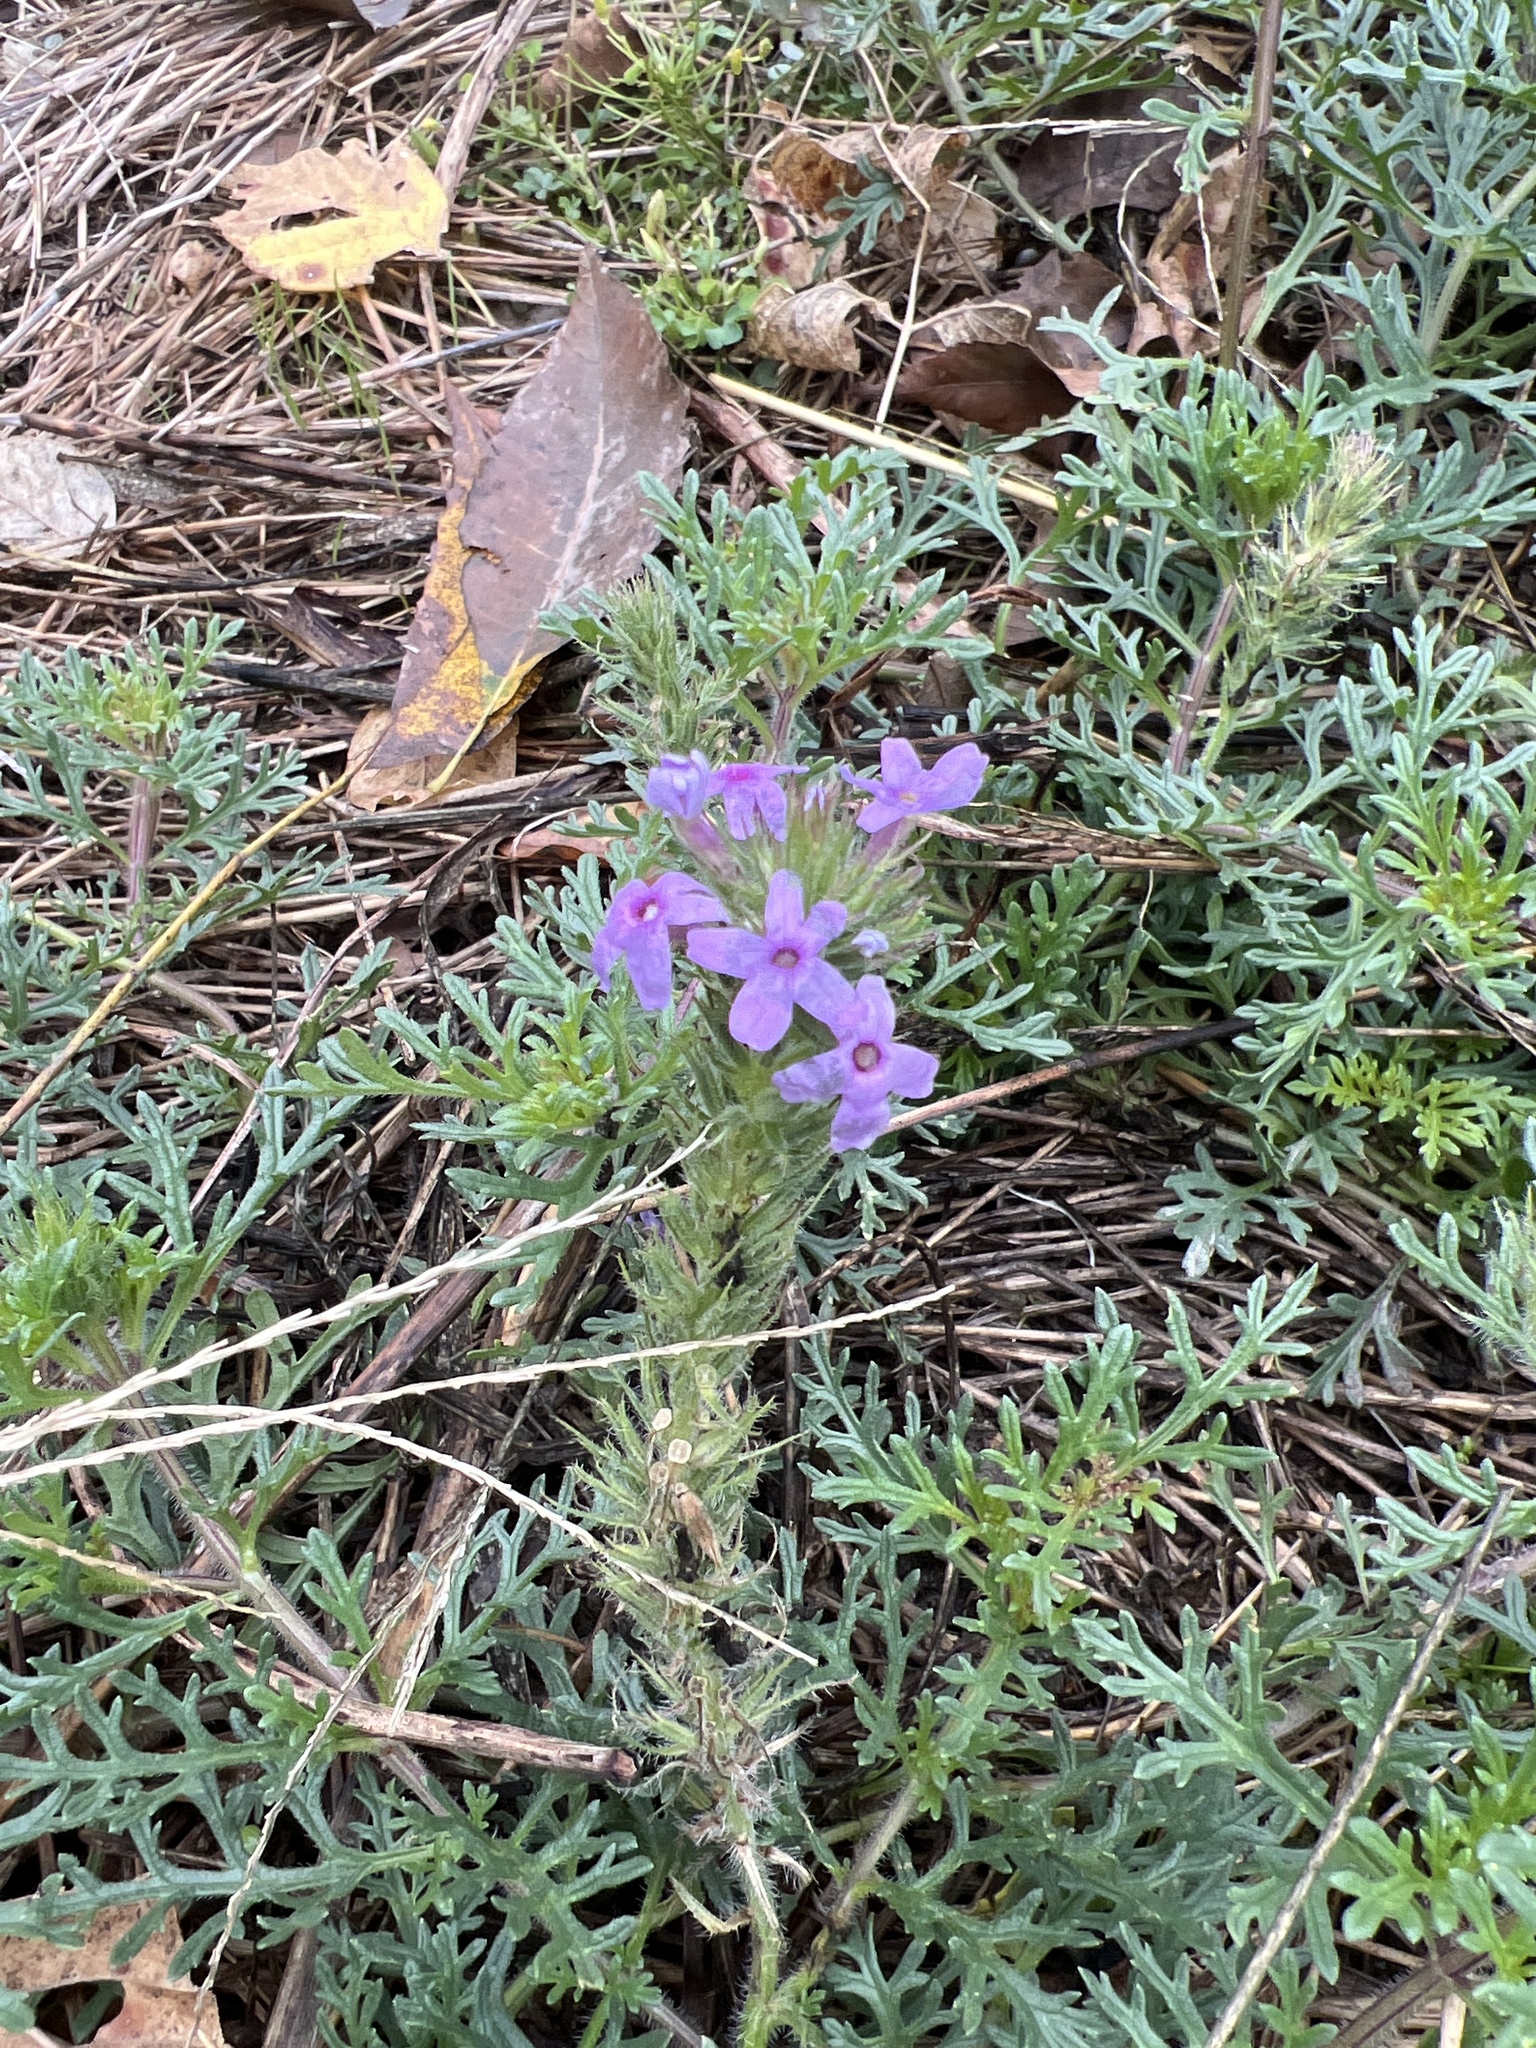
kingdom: Plantae
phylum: Tracheophyta
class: Magnoliopsida
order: Lamiales
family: Verbenaceae
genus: Verbena
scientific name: Verbena bipinnatifida
